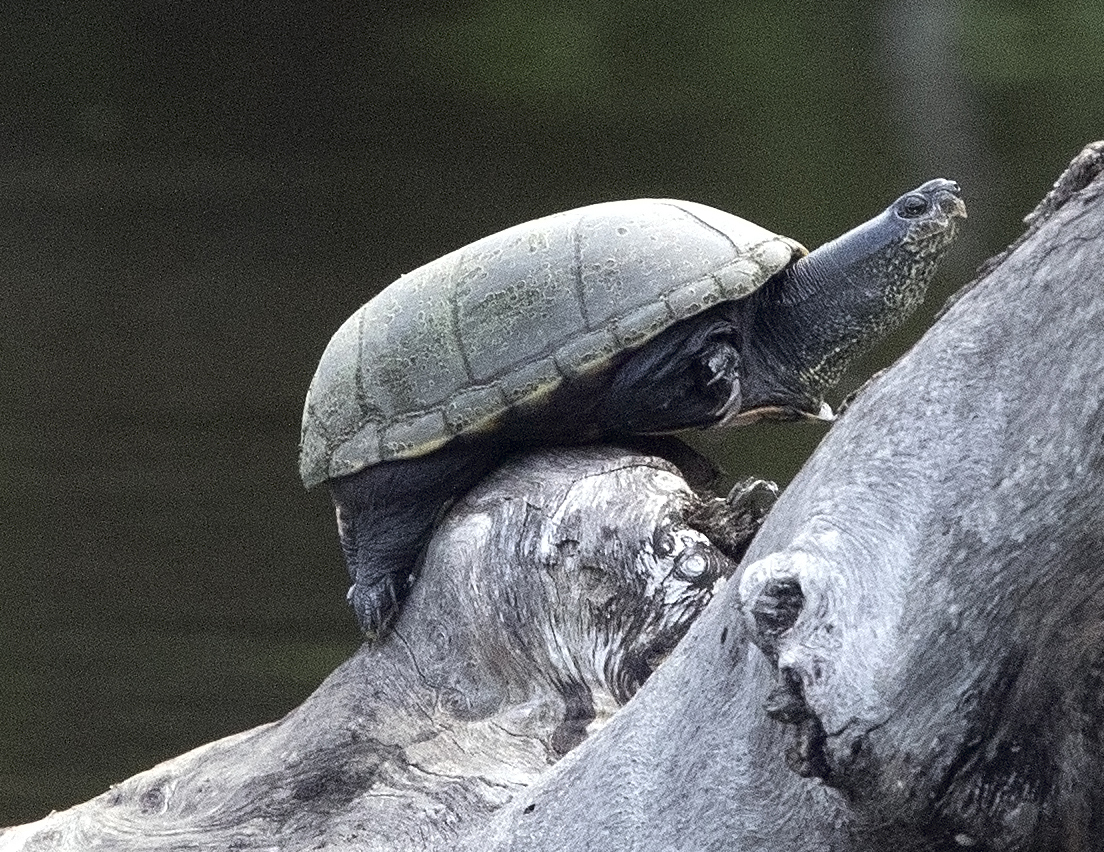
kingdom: Animalia
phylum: Chordata
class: Testudines
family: Kinosternidae
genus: Kinosternon
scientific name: Kinosternon flavescens
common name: Yellow mud turtle
